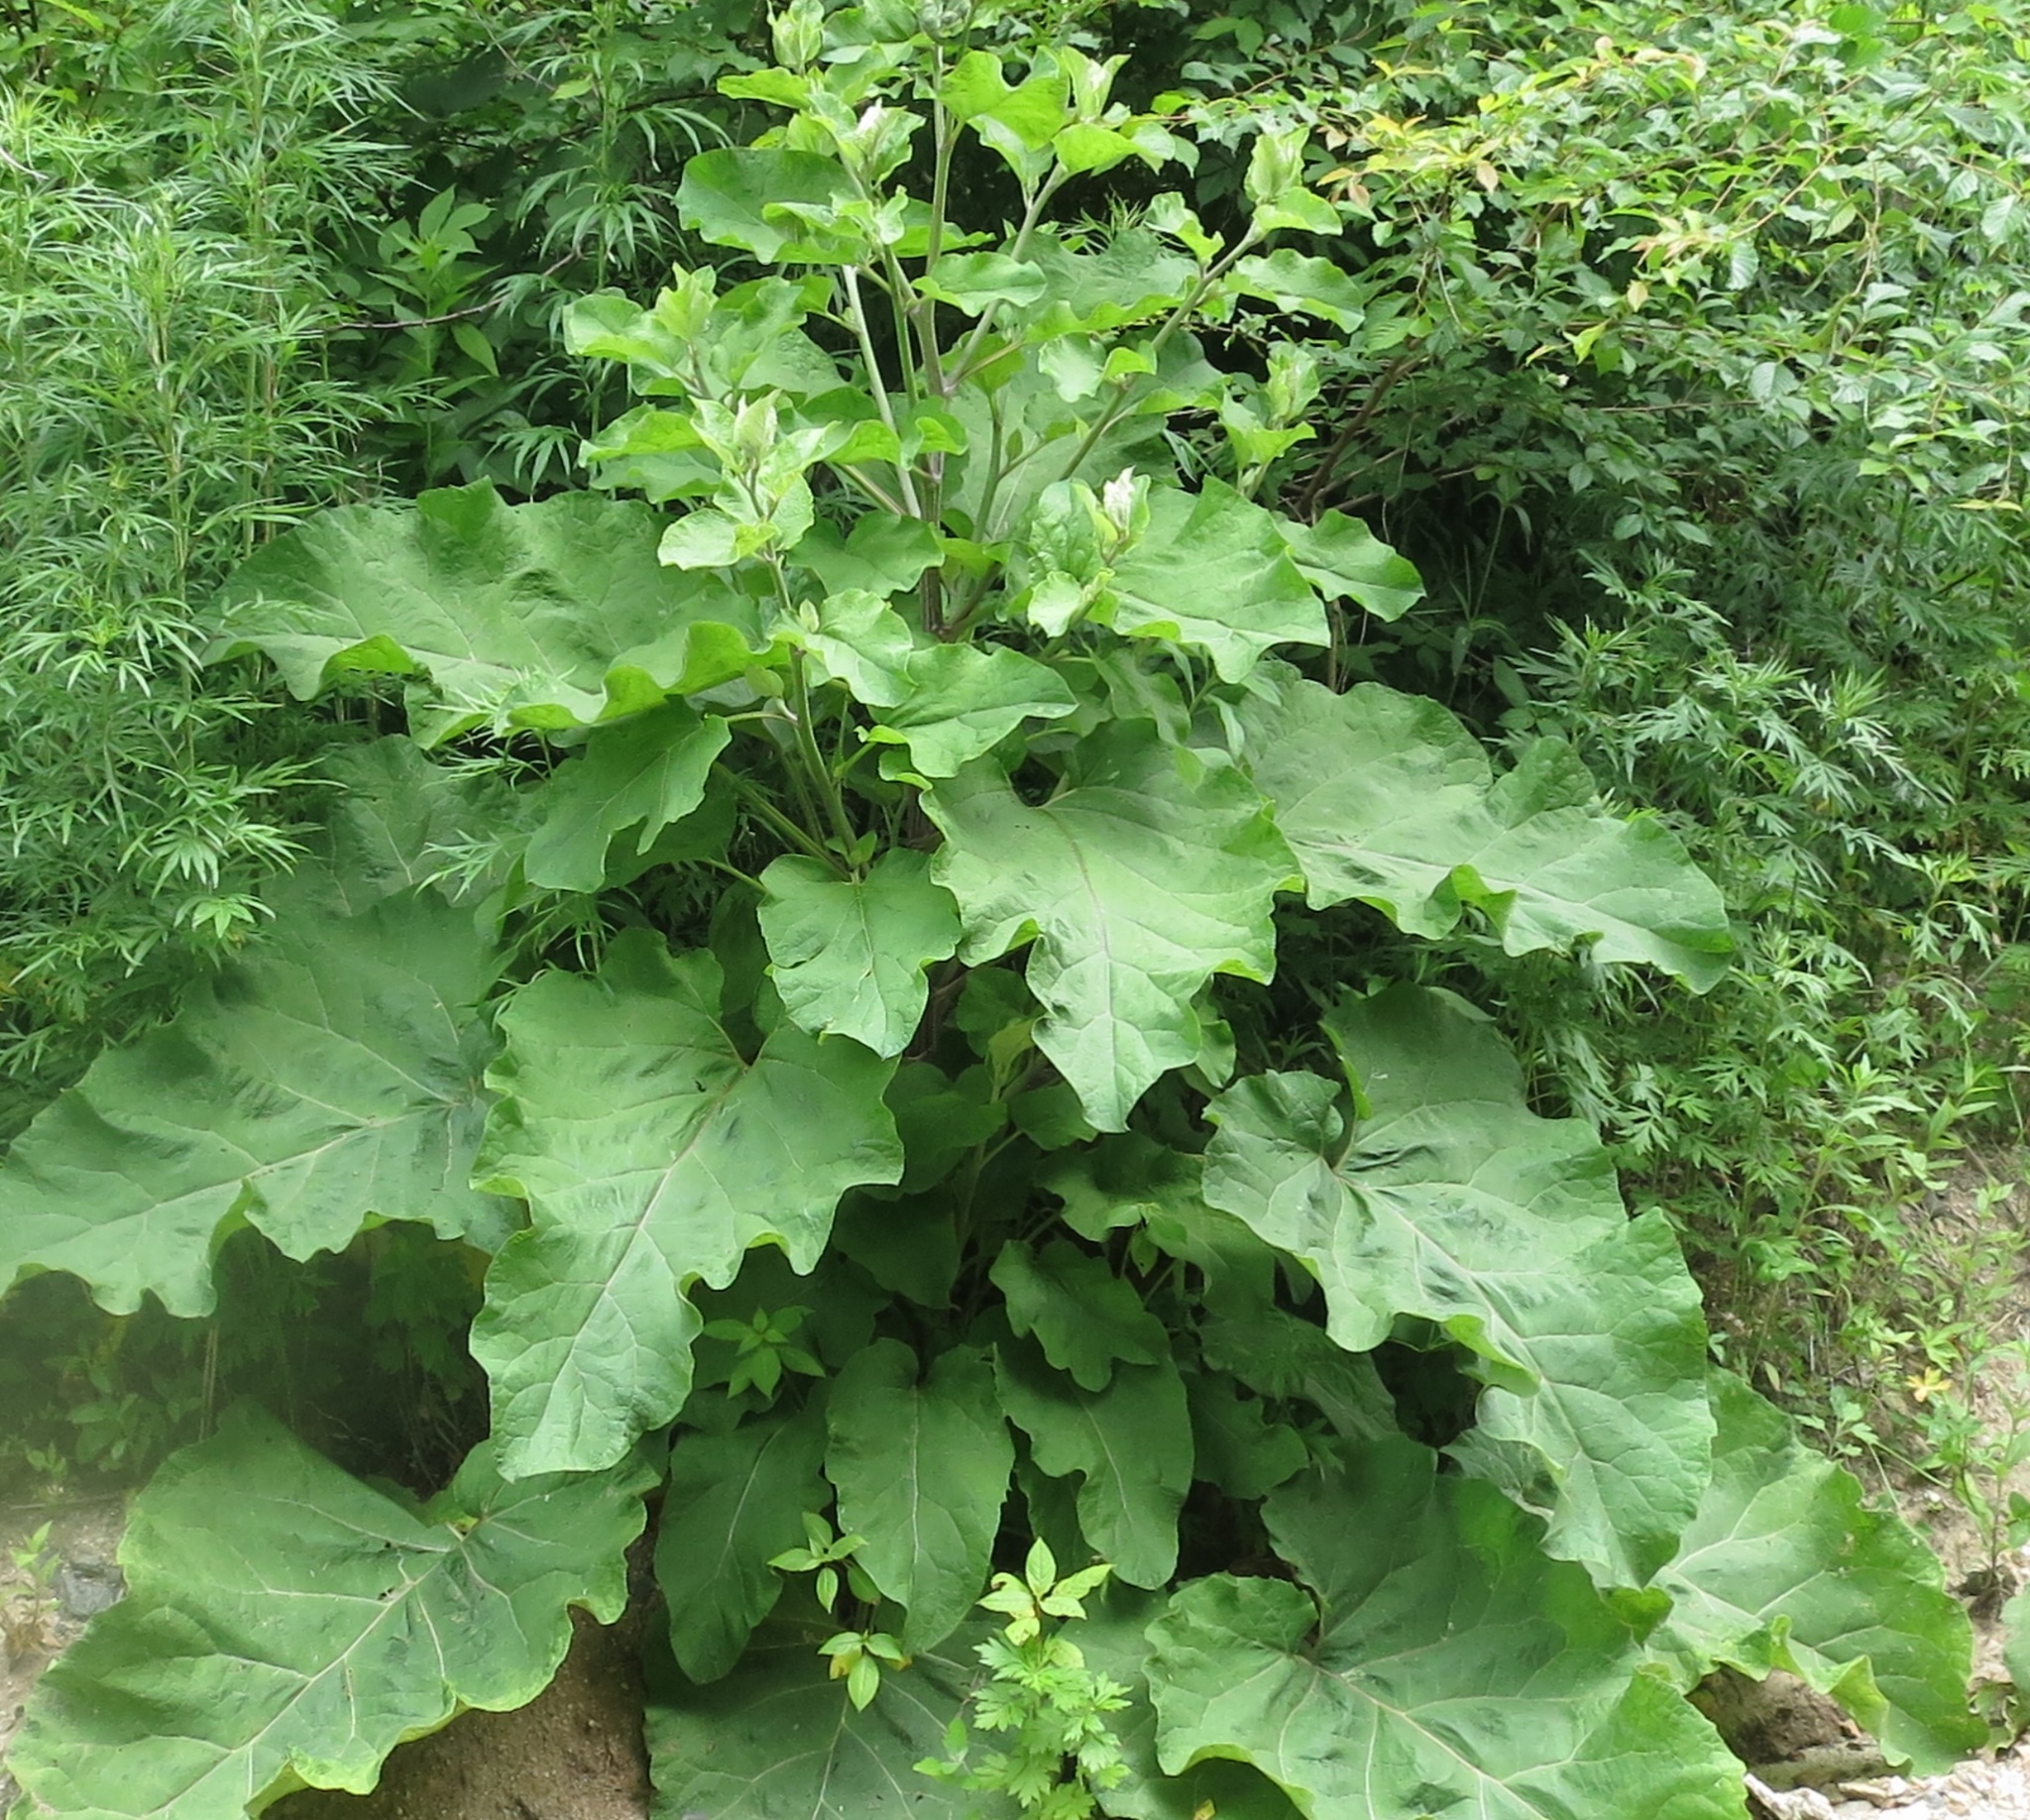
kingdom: Plantae
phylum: Tracheophyta
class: Magnoliopsida
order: Asterales
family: Asteraceae
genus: Arctium
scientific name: Arctium tomentosum
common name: Woolly burdock
